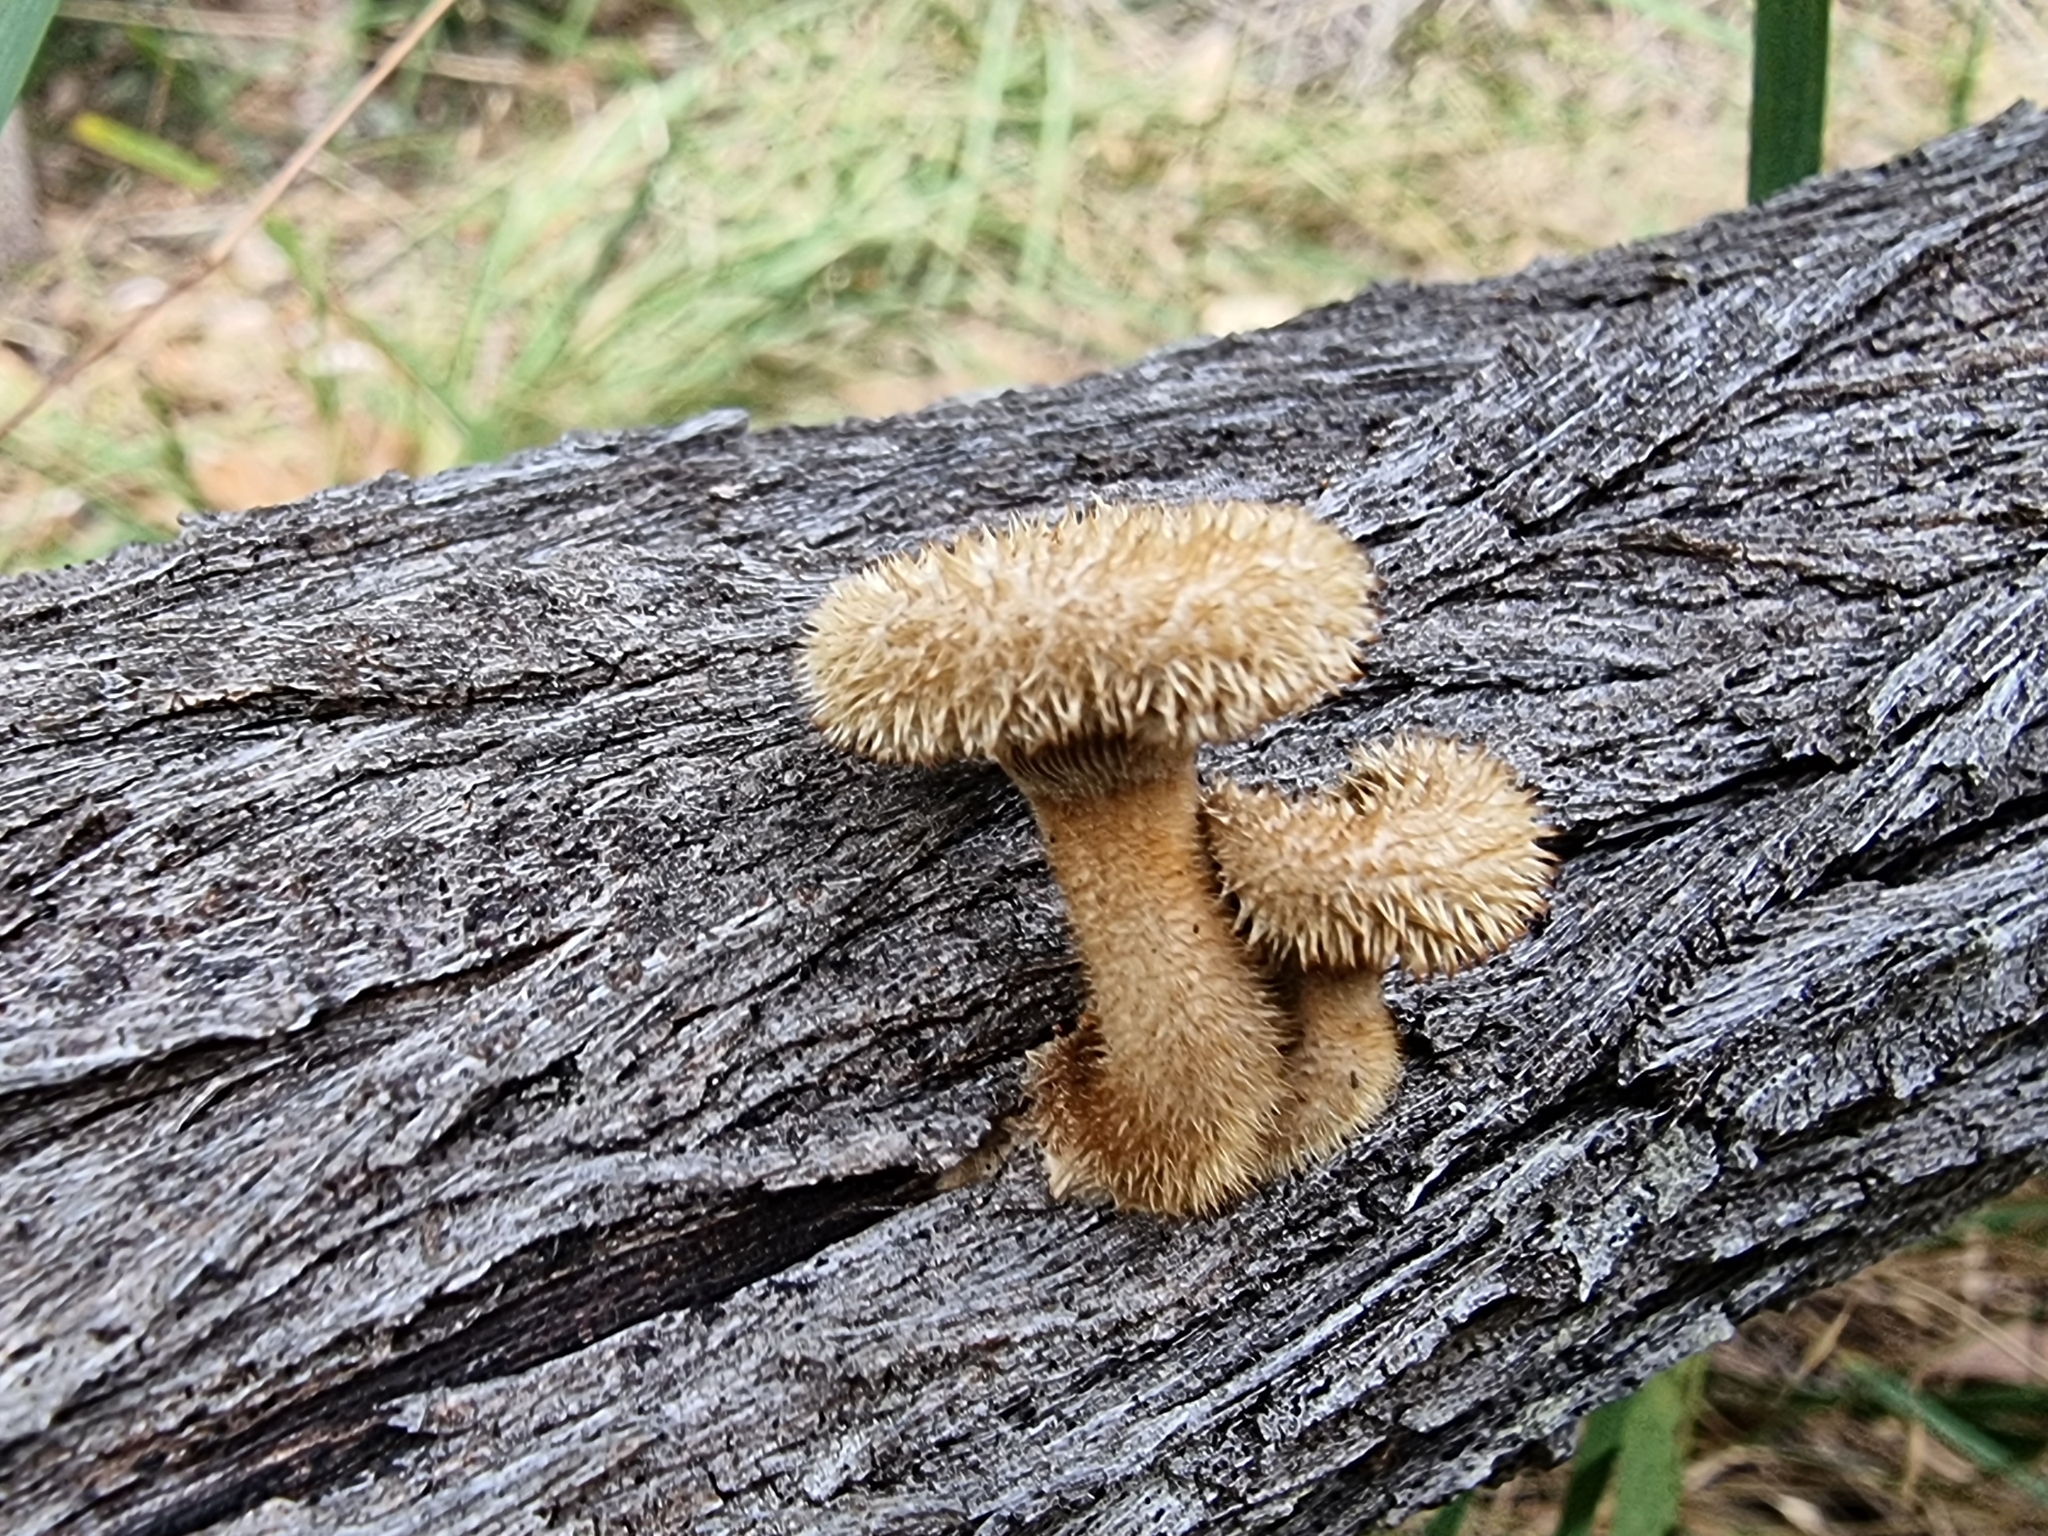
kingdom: Fungi
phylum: Basidiomycota
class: Agaricomycetes
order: Polyporales
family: Polyporaceae
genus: Lentinus
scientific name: Lentinus fasciatus
